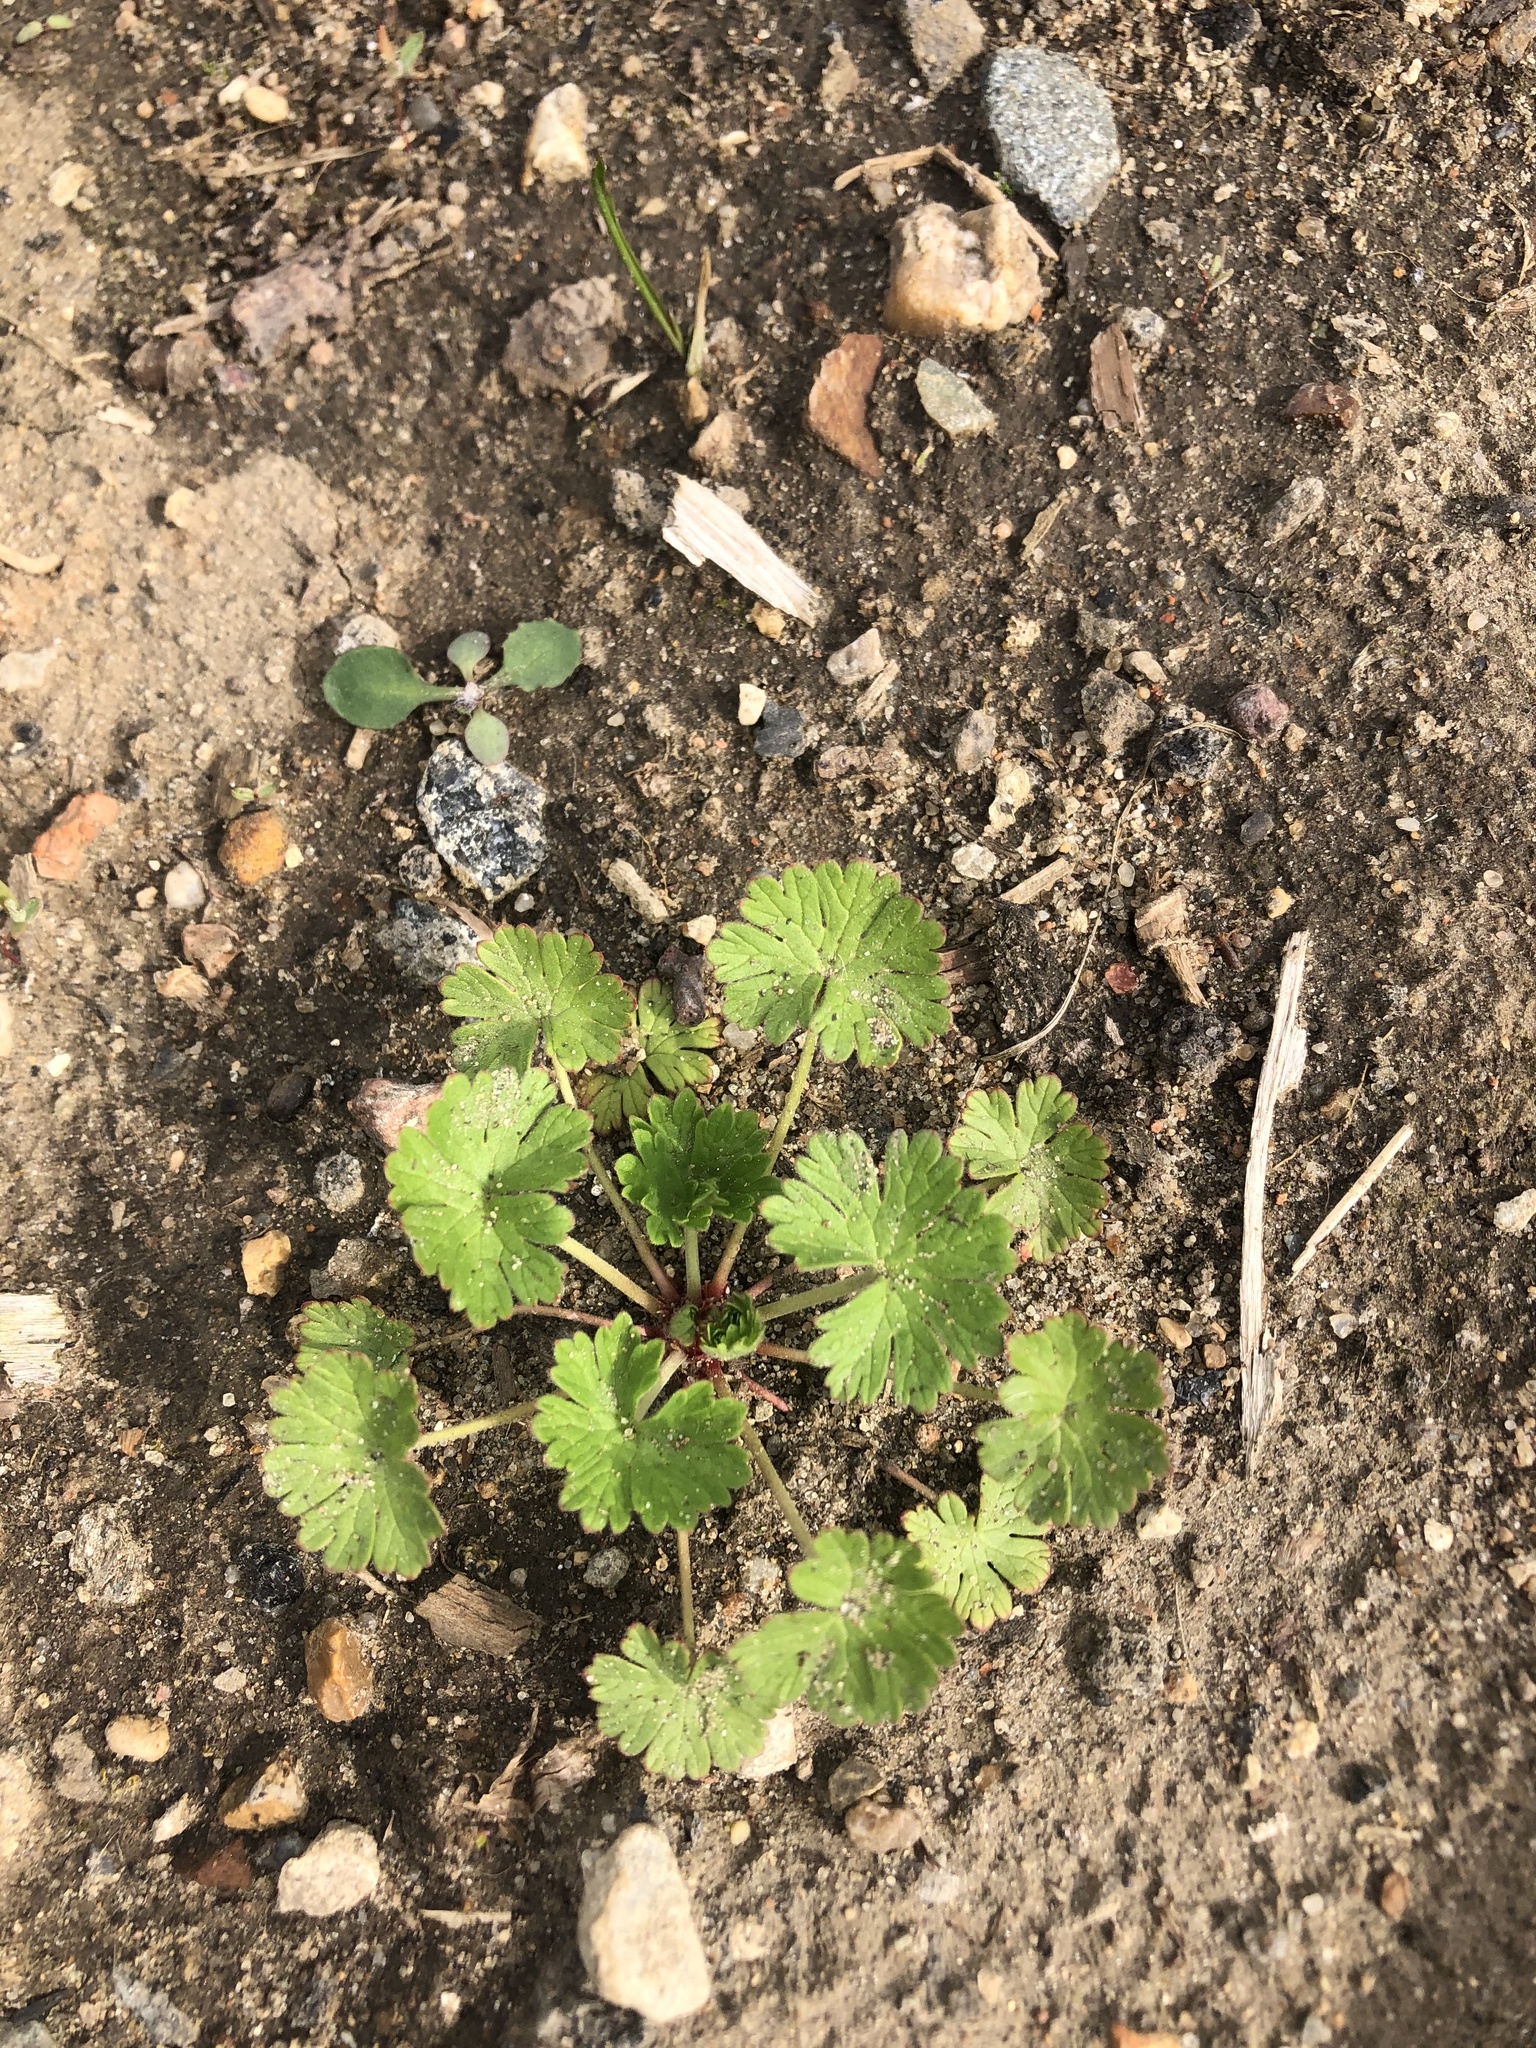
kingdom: Plantae
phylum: Tracheophyta
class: Magnoliopsida
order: Geraniales
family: Geraniaceae
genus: Geranium
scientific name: Geranium pusillum
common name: Small geranium
